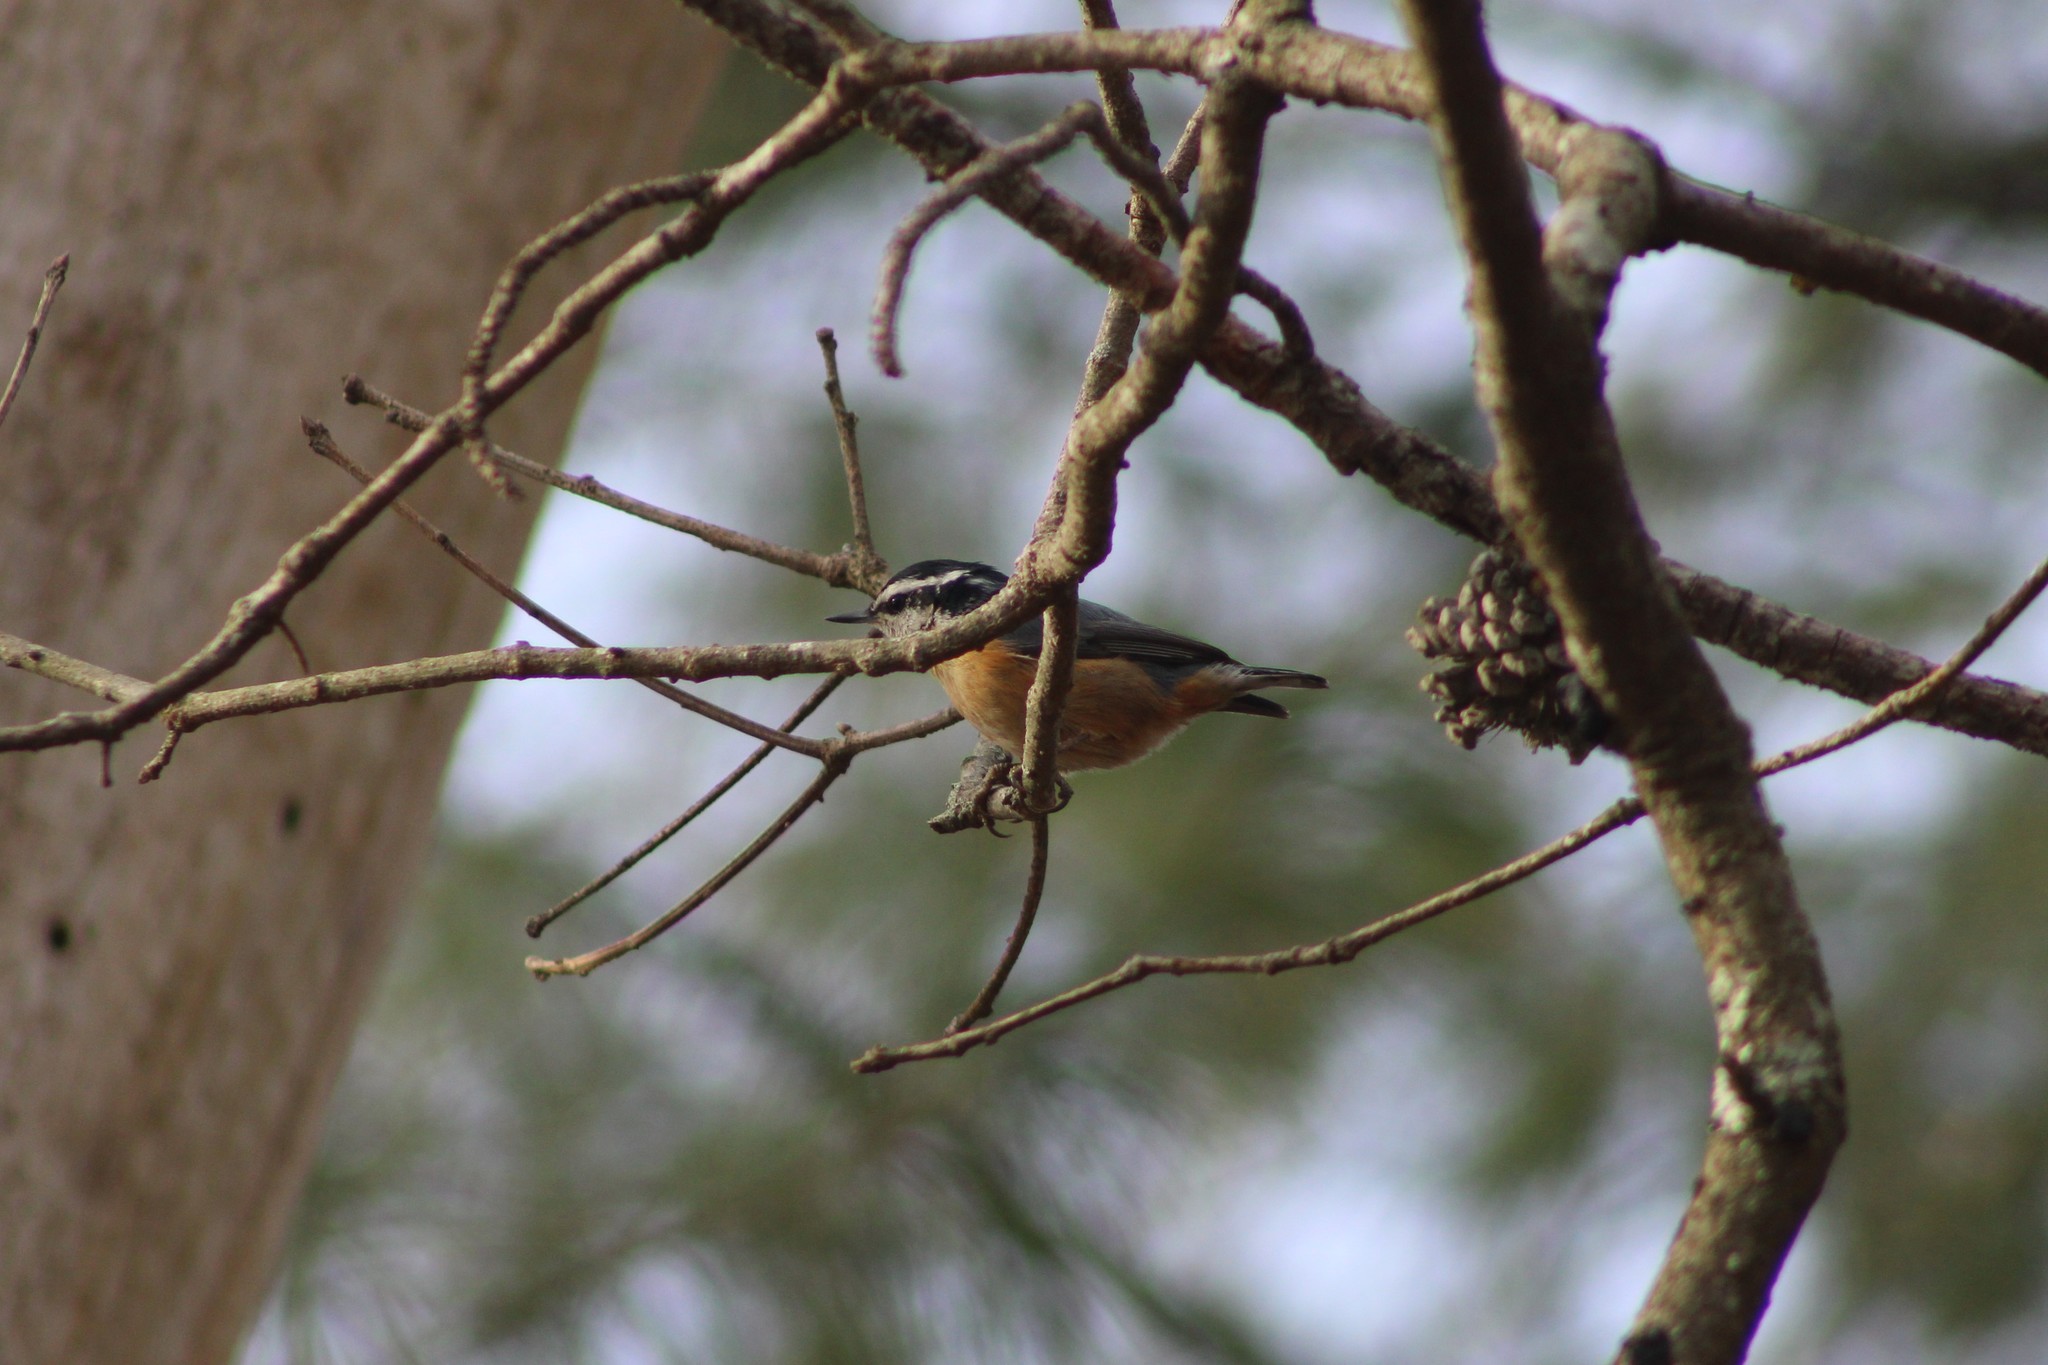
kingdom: Animalia
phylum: Chordata
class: Aves
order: Passeriformes
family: Sittidae
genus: Sitta
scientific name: Sitta canadensis
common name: Red-breasted nuthatch
